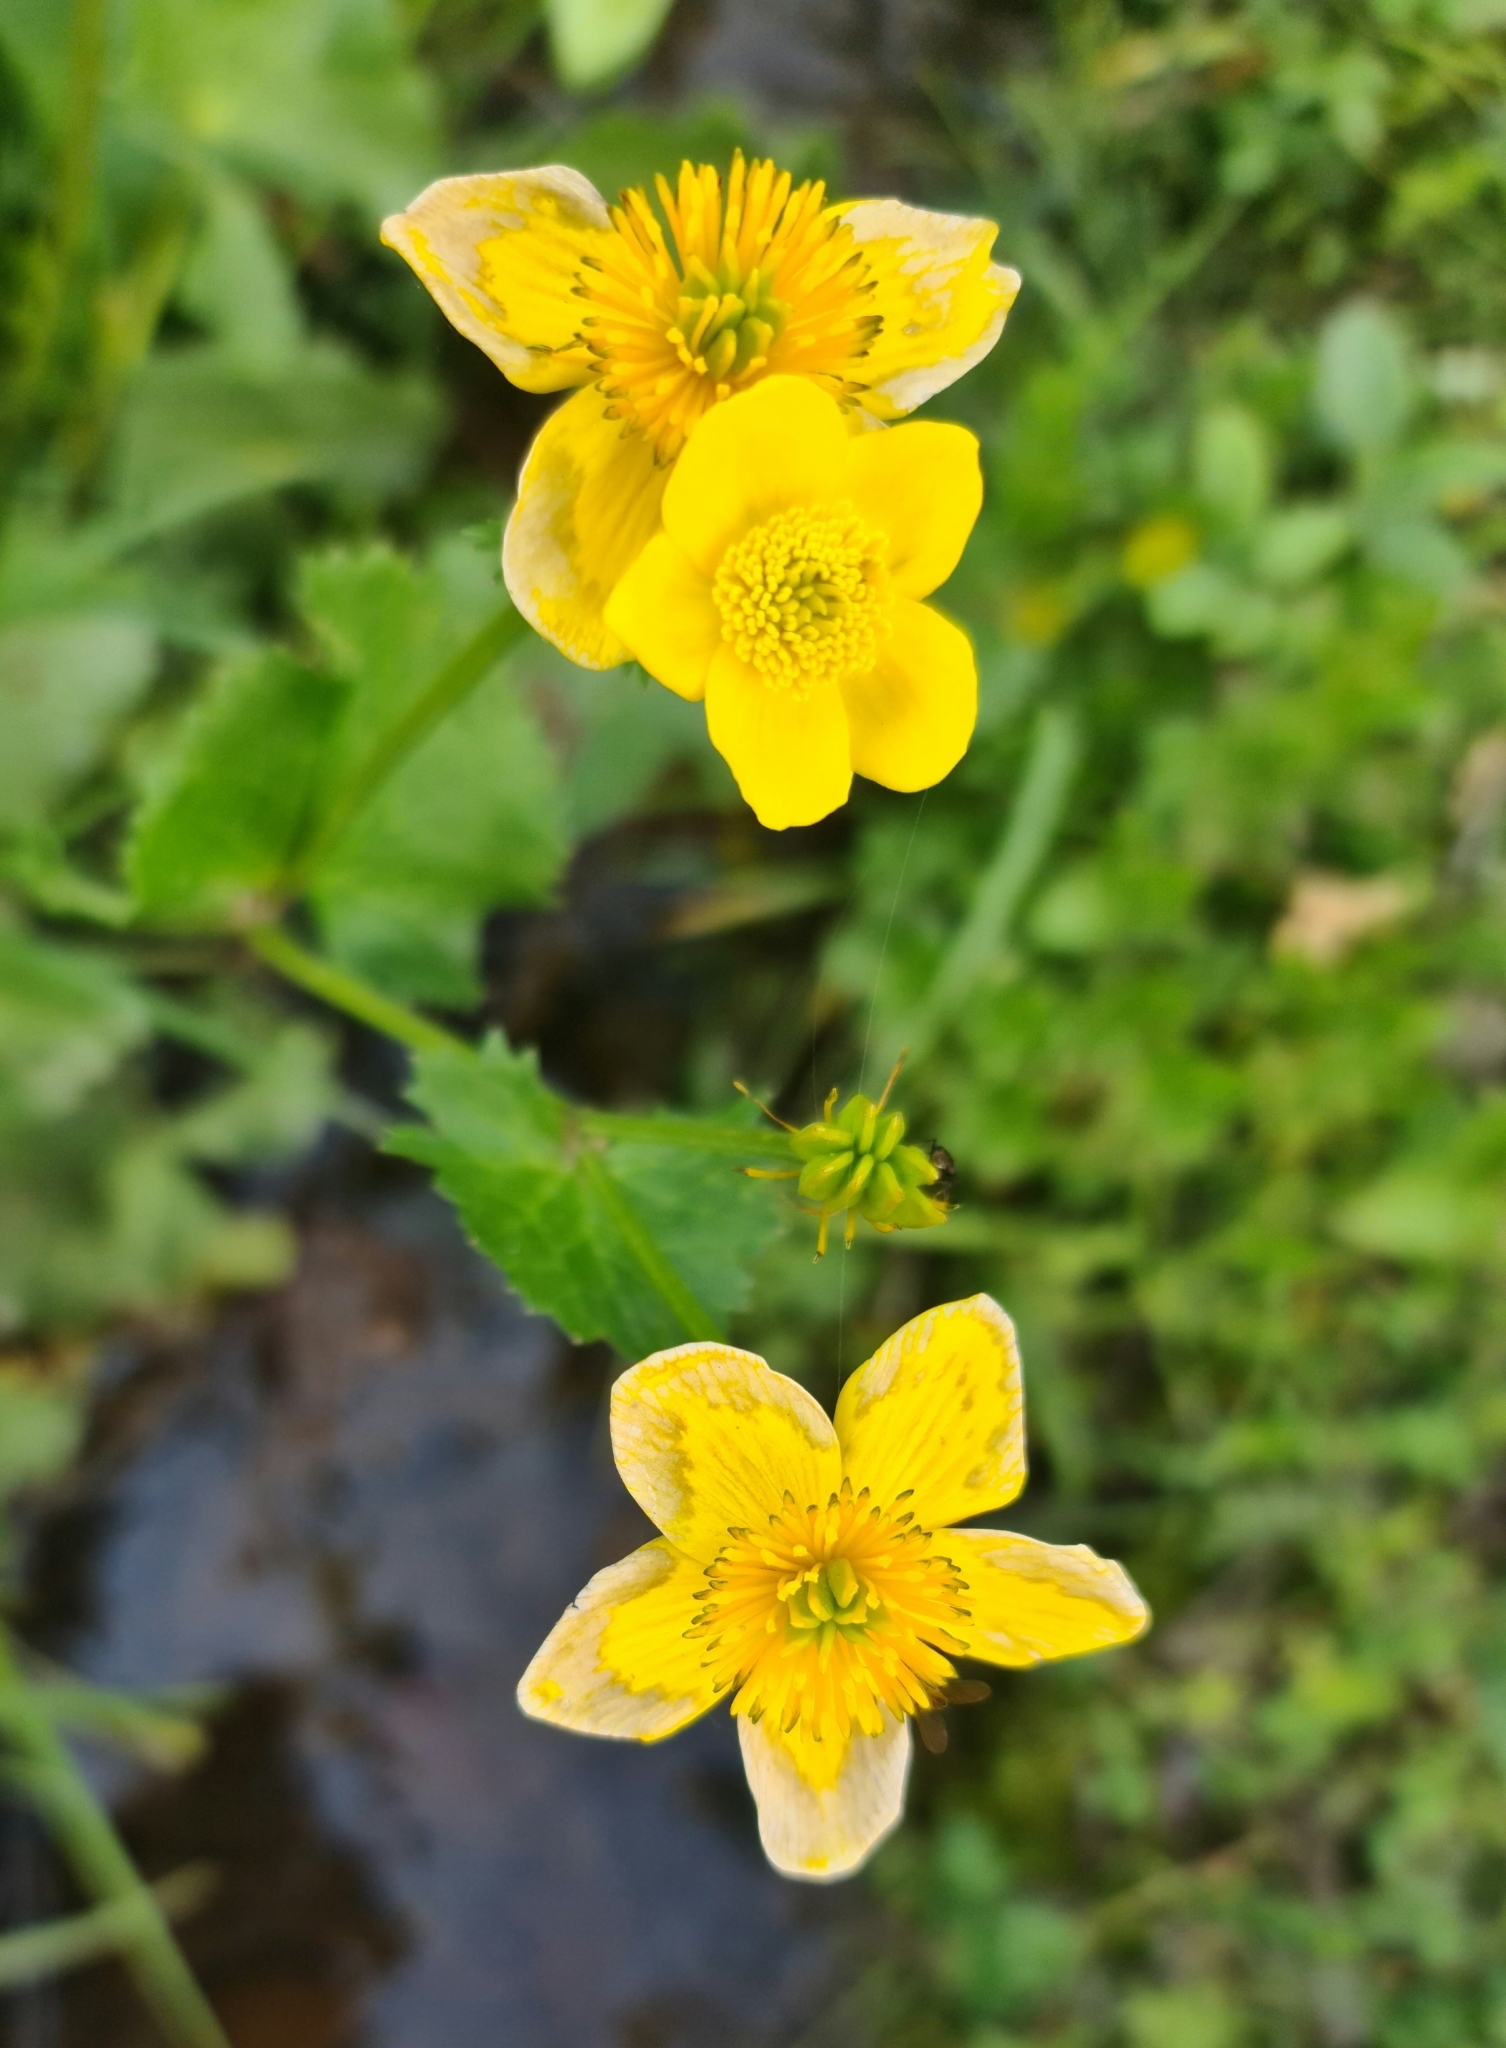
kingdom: Plantae
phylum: Tracheophyta
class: Magnoliopsida
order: Ranunculales
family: Ranunculaceae
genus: Caltha
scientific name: Caltha palustris
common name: Marsh marigold
